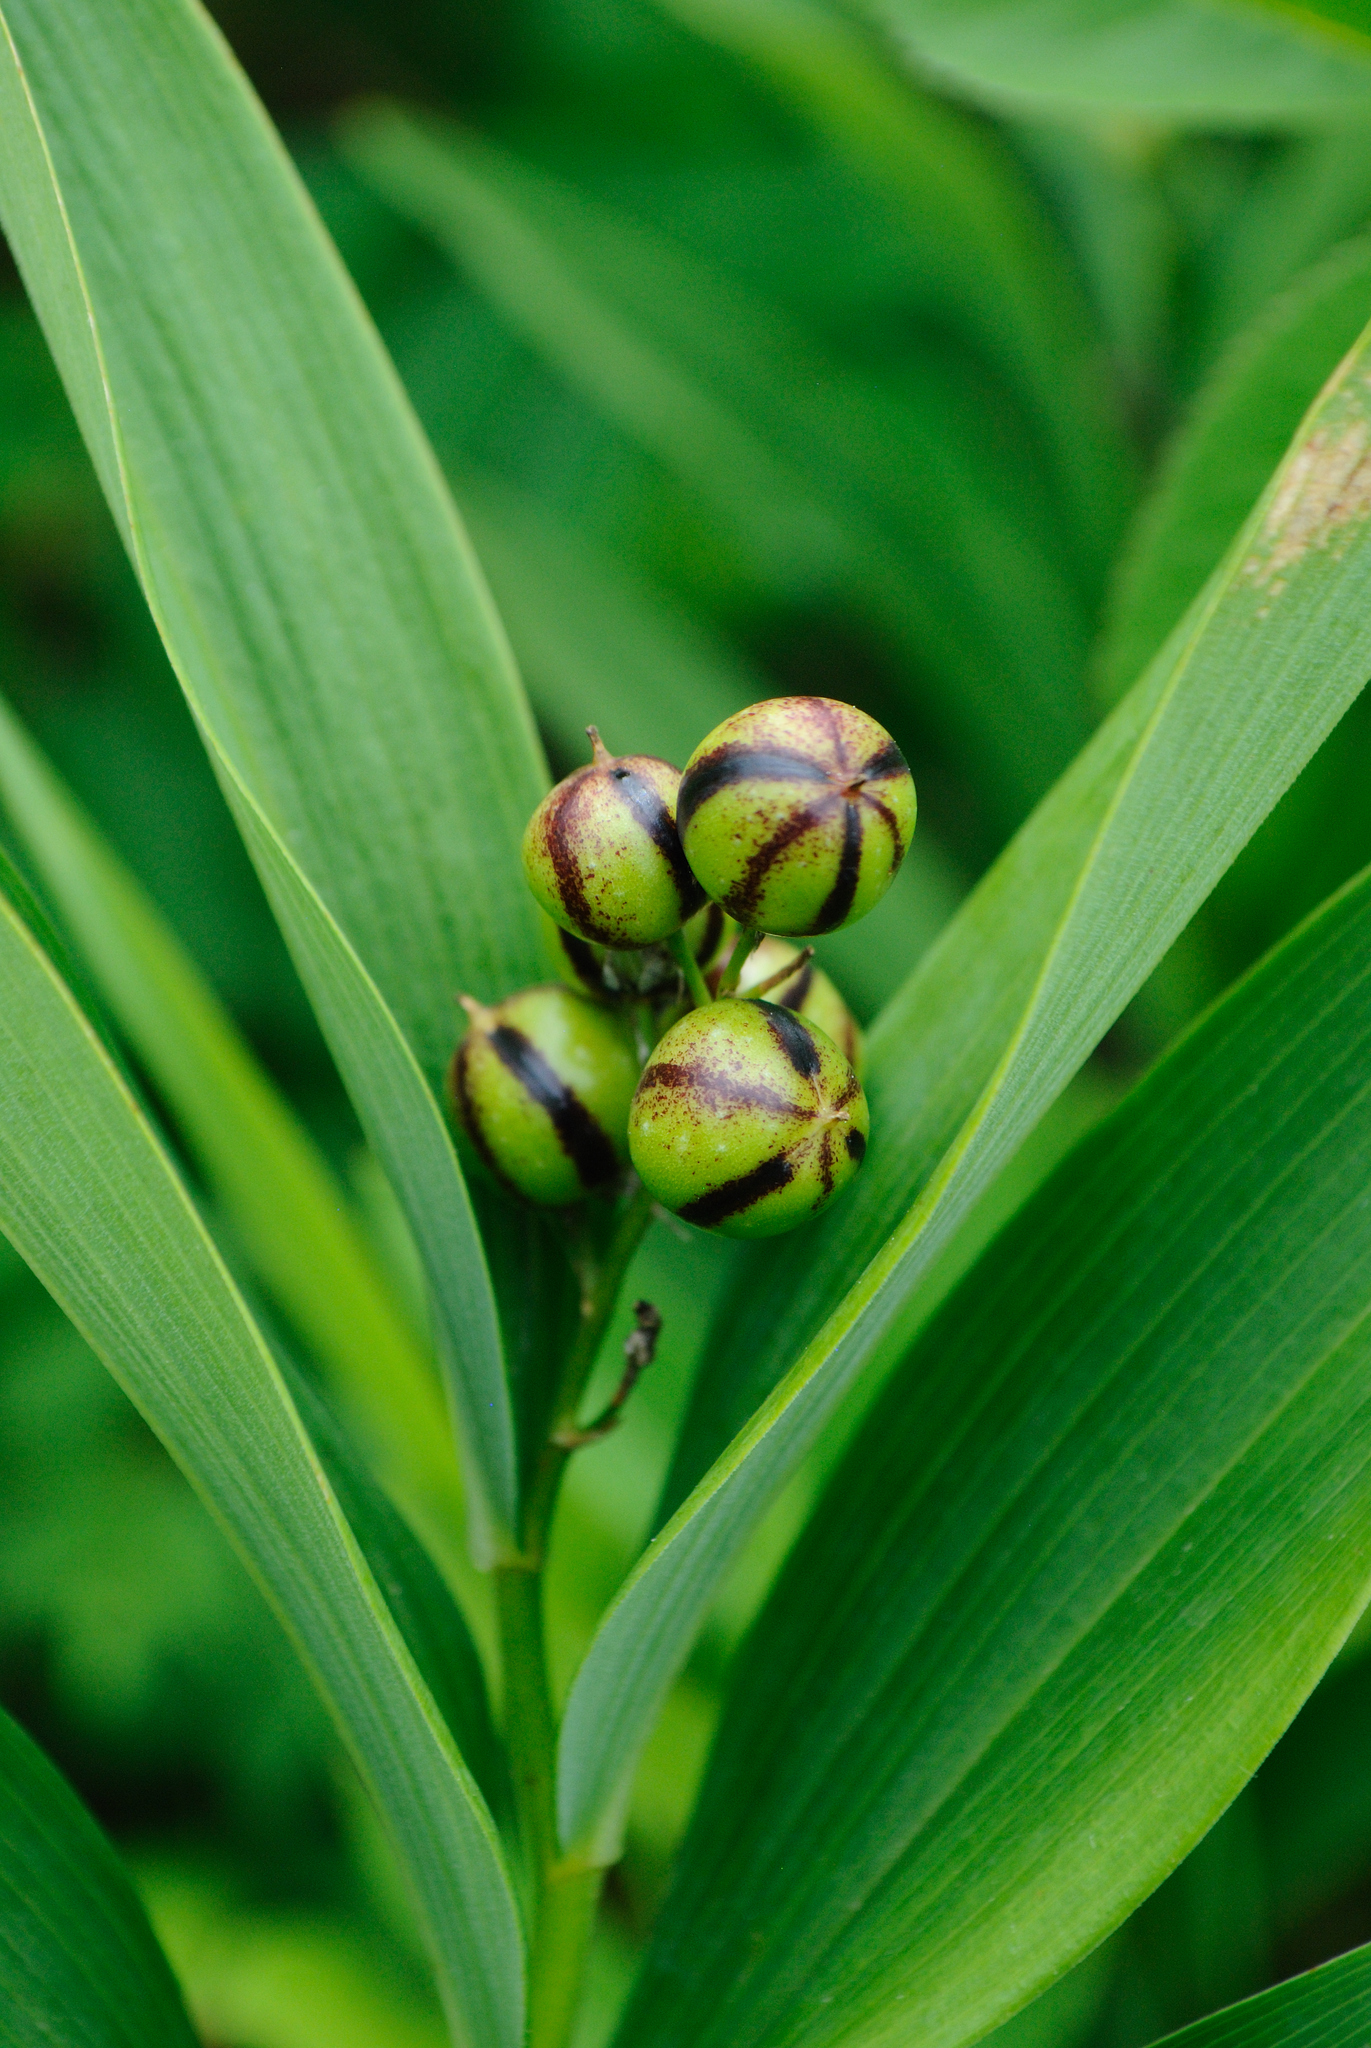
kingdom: Plantae
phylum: Tracheophyta
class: Liliopsida
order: Asparagales
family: Asparagaceae
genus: Maianthemum
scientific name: Maianthemum stellatum
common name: Little false solomon's seal
